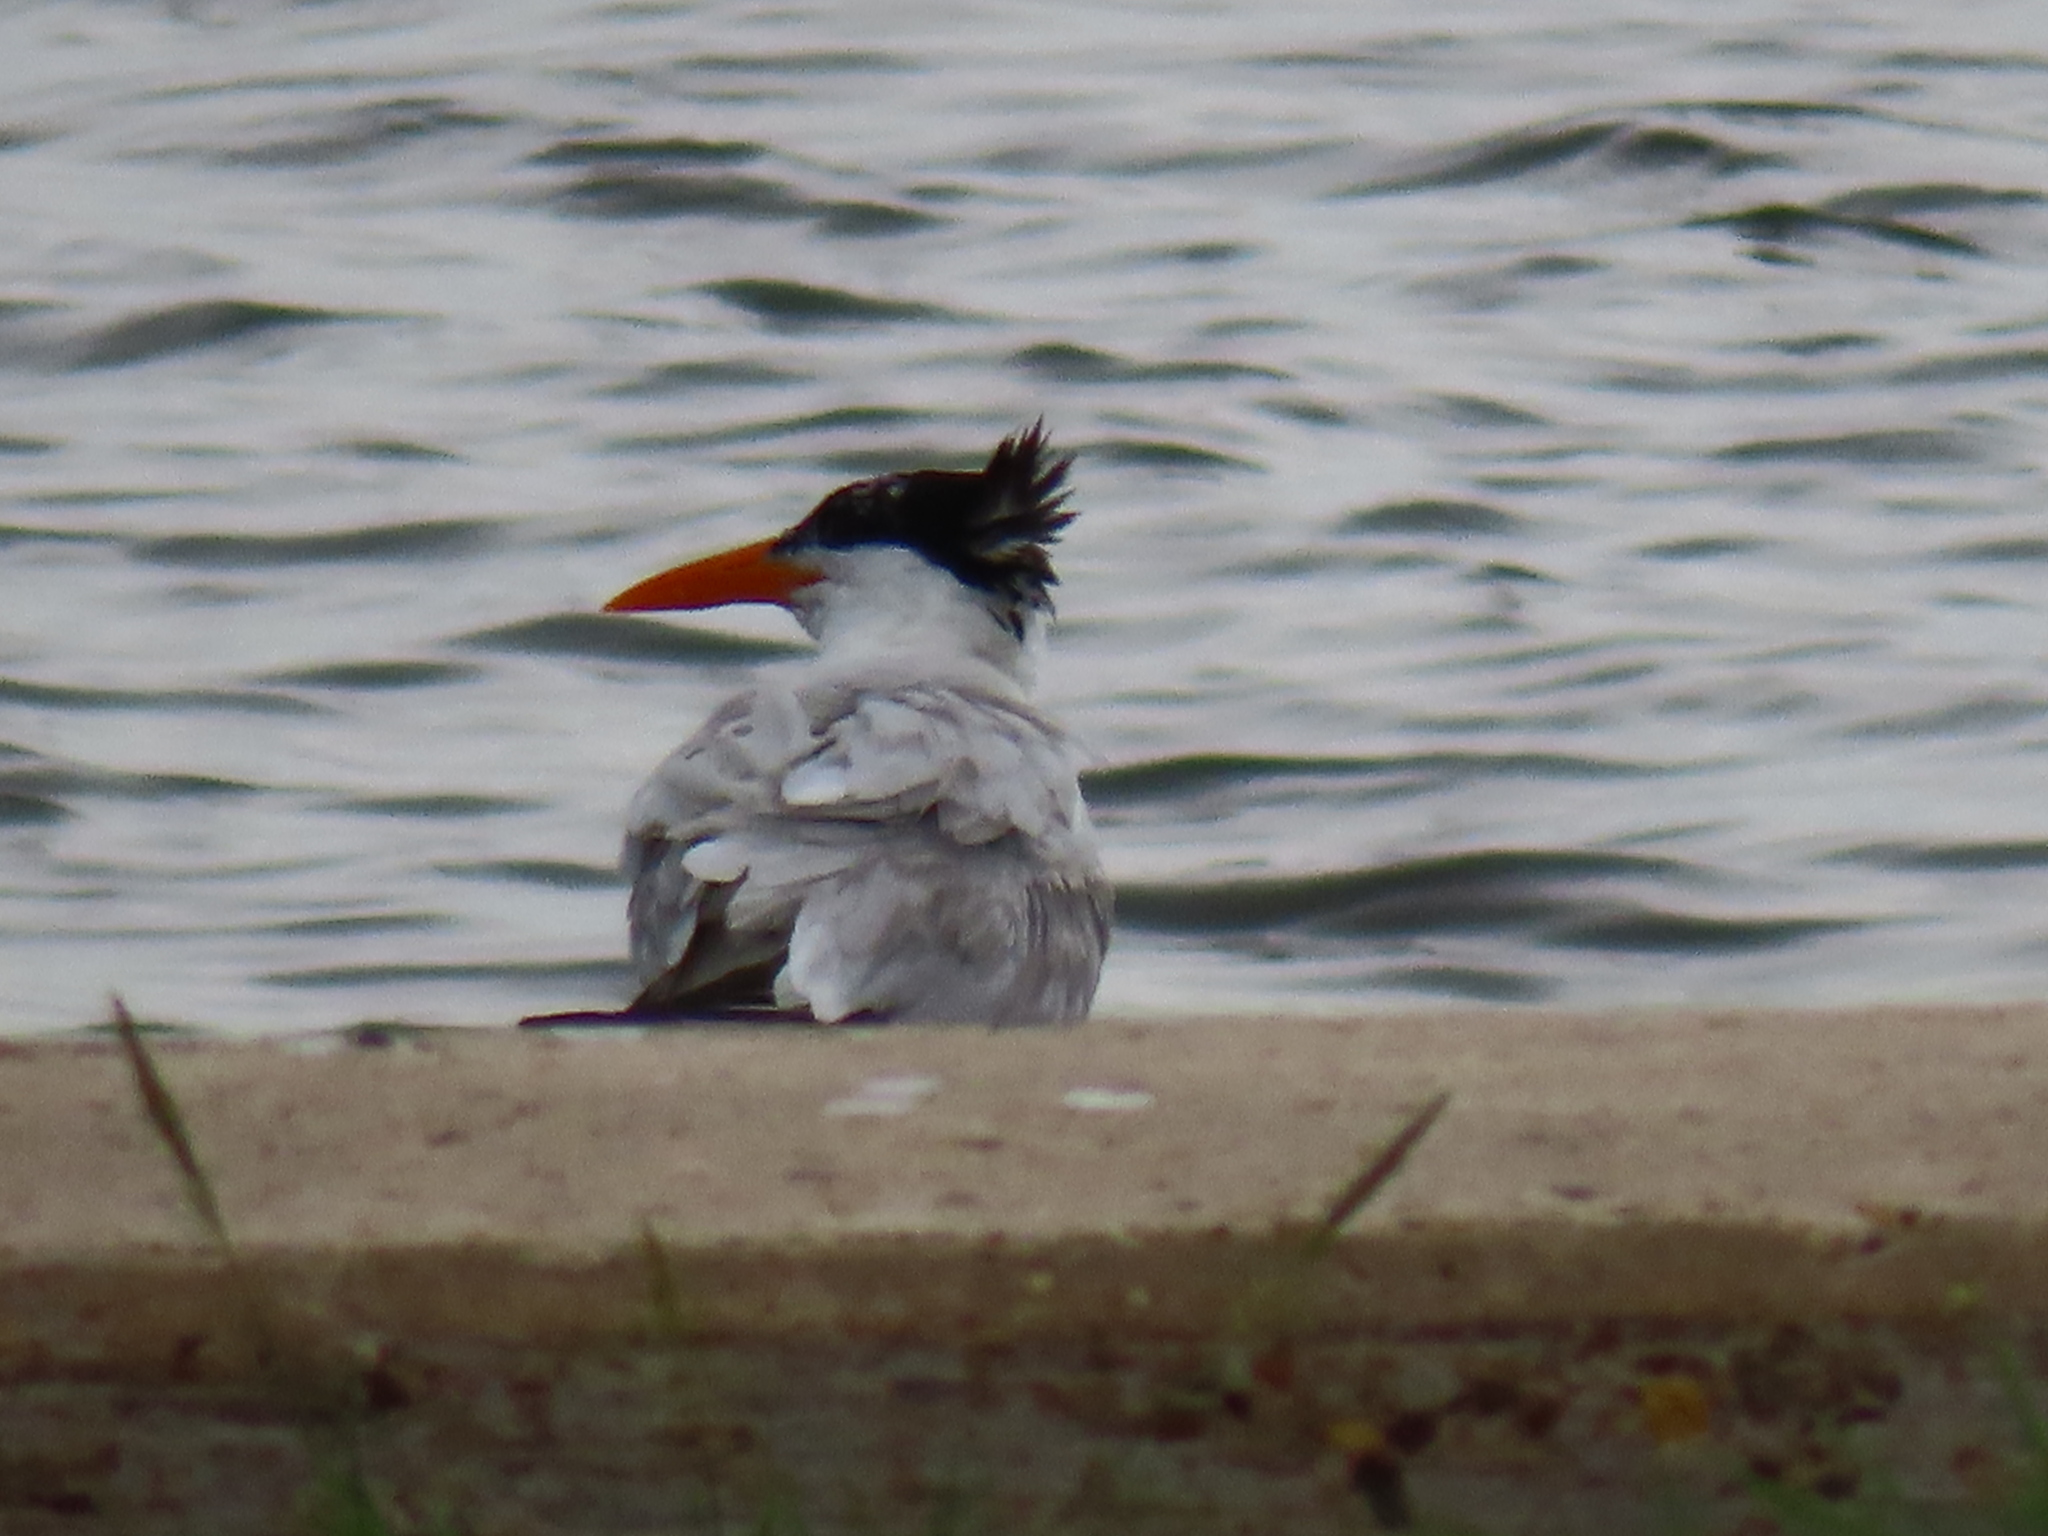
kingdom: Animalia
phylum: Chordata
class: Aves
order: Charadriiformes
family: Laridae
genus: Thalasseus
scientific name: Thalasseus maximus
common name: Royal tern
